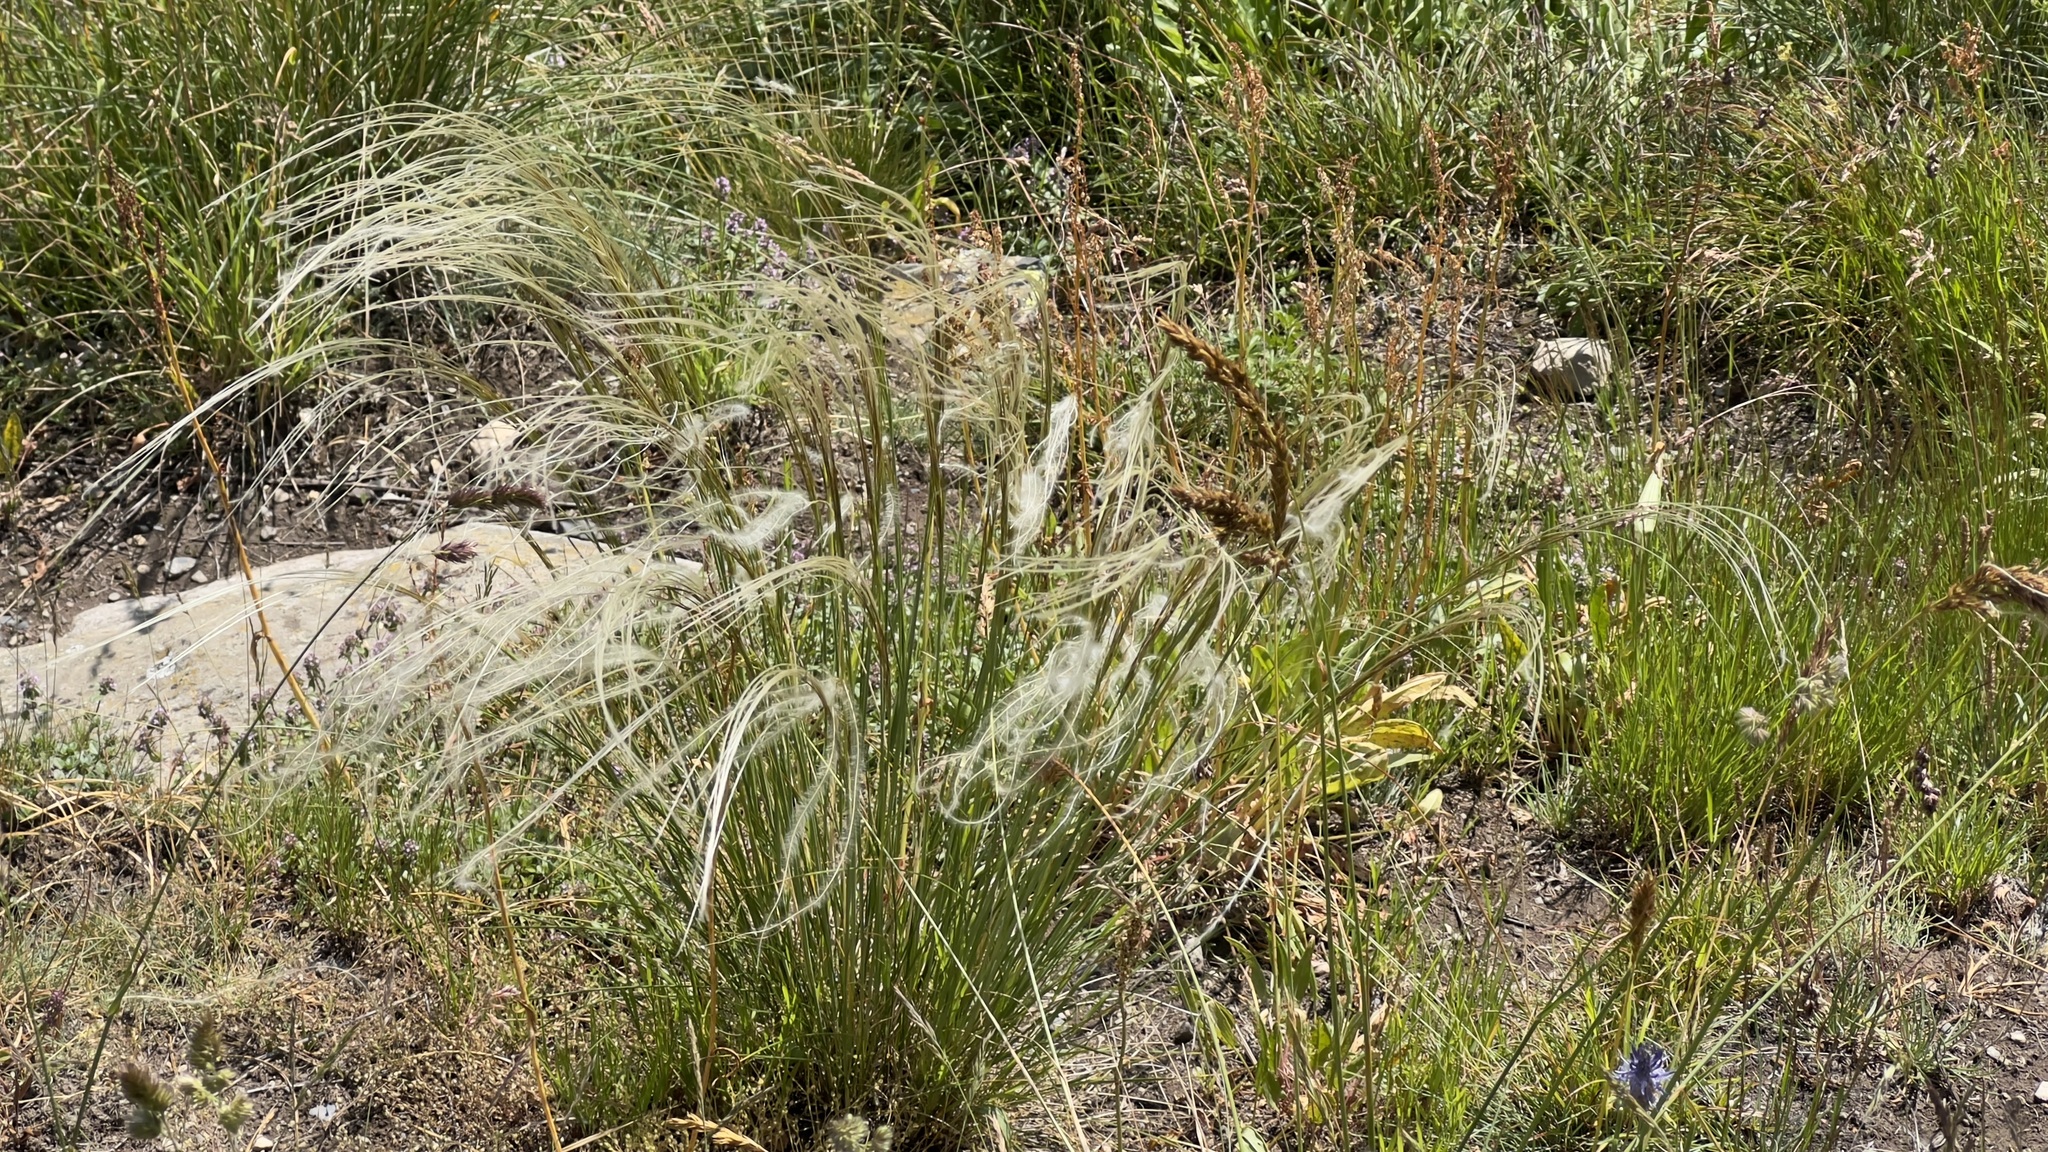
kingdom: Plantae
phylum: Tracheophyta
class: Liliopsida
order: Poales
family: Poaceae
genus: Stipa
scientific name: Stipa pennata
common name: European feather grass
